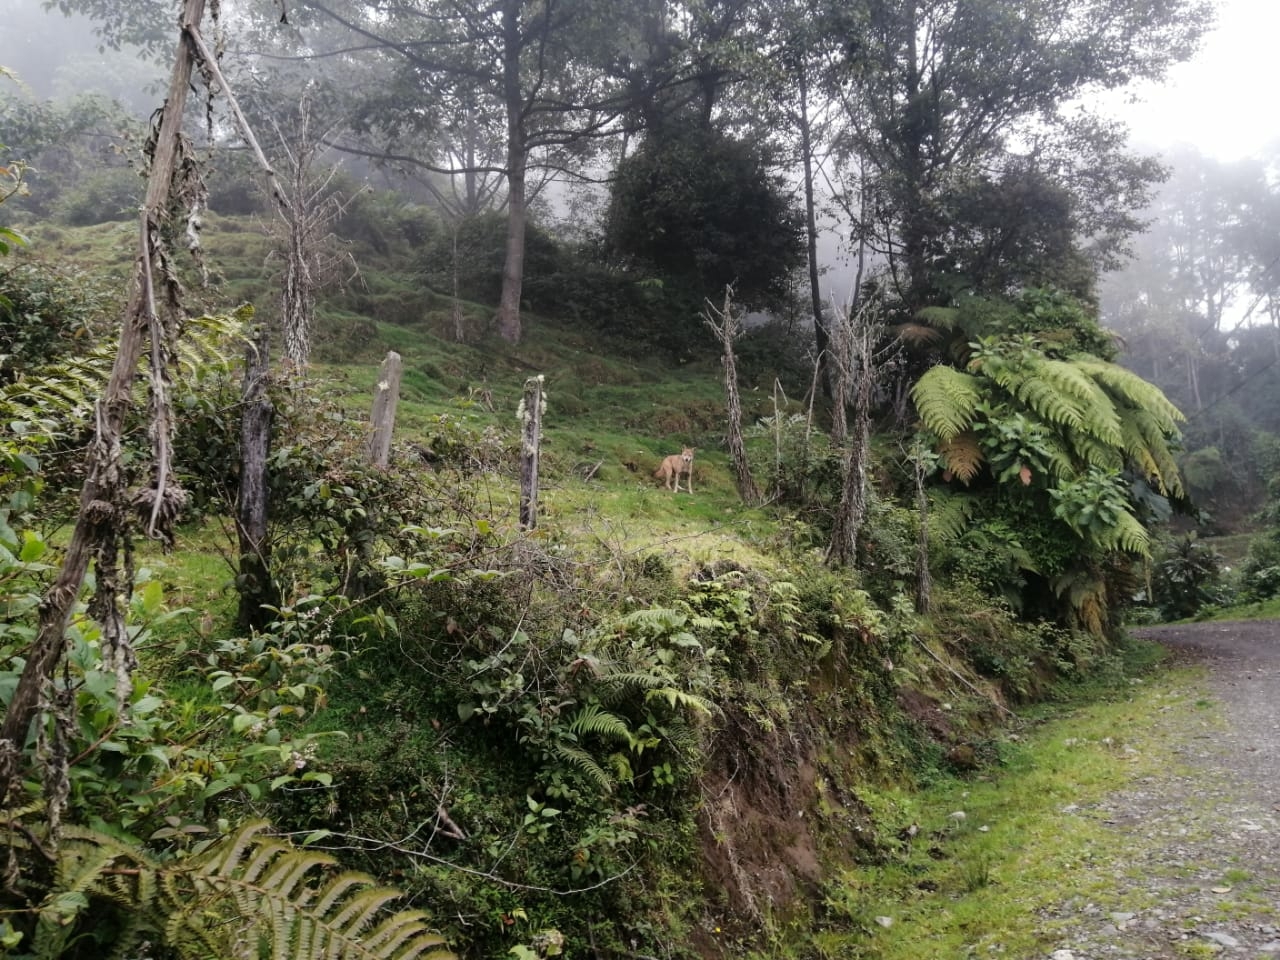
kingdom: Animalia
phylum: Chordata
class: Mammalia
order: Carnivora
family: Canidae
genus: Canis
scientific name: Canis latrans
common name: Coyote
